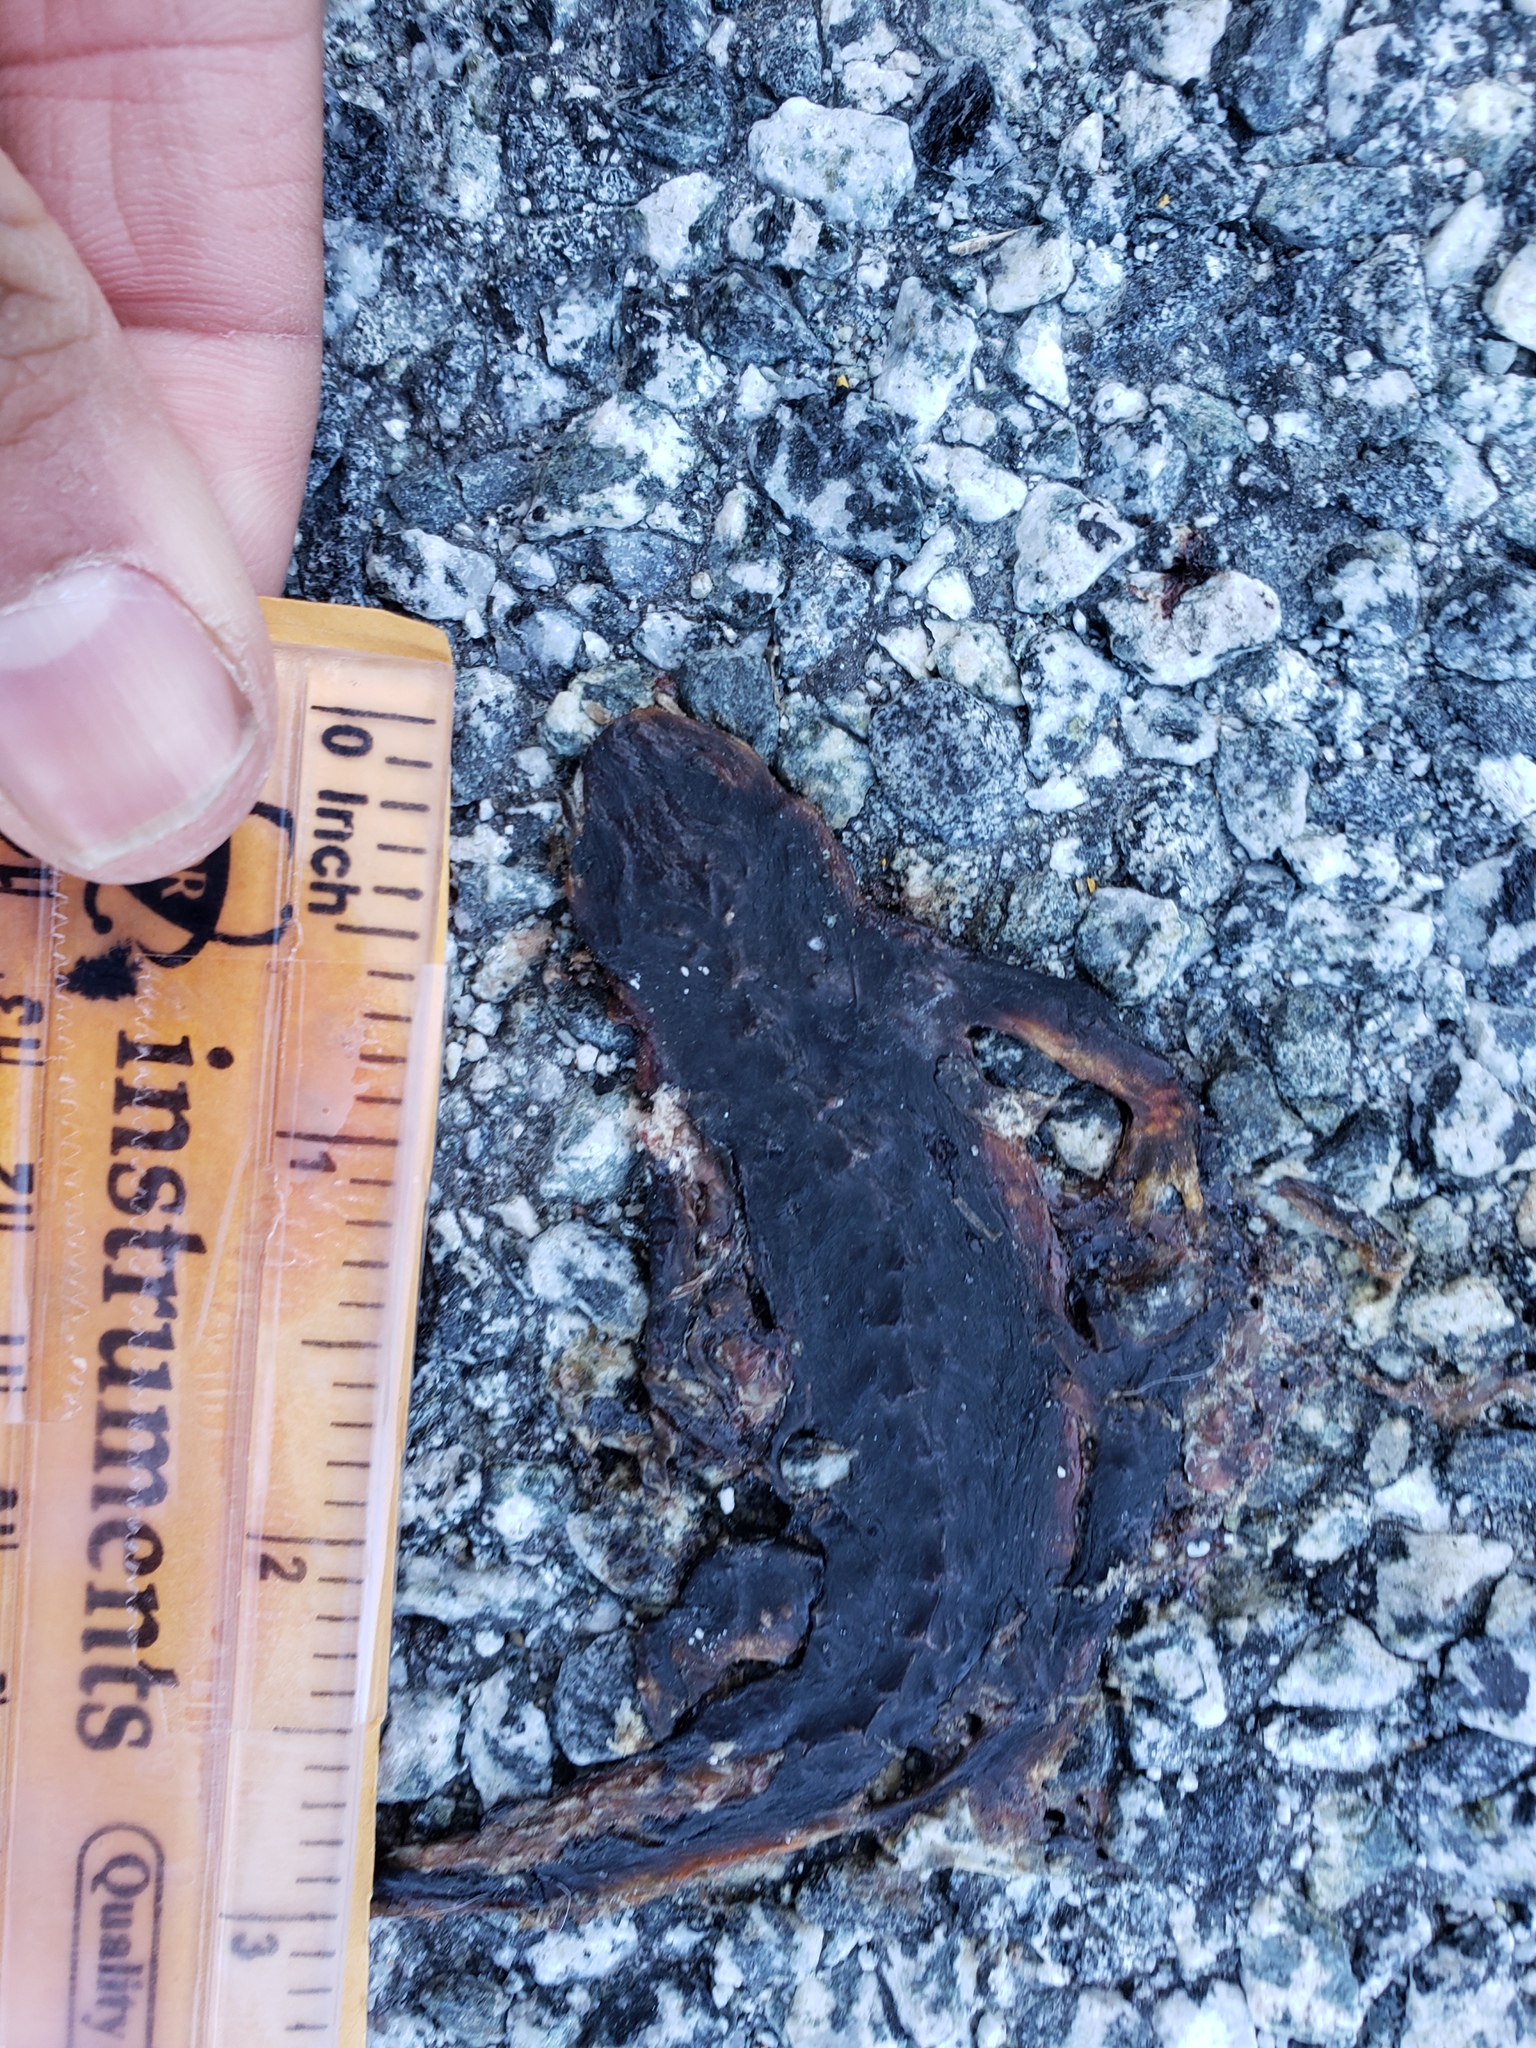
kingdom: Animalia
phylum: Chordata
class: Amphibia
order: Caudata
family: Salamandridae
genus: Taricha
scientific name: Taricha
